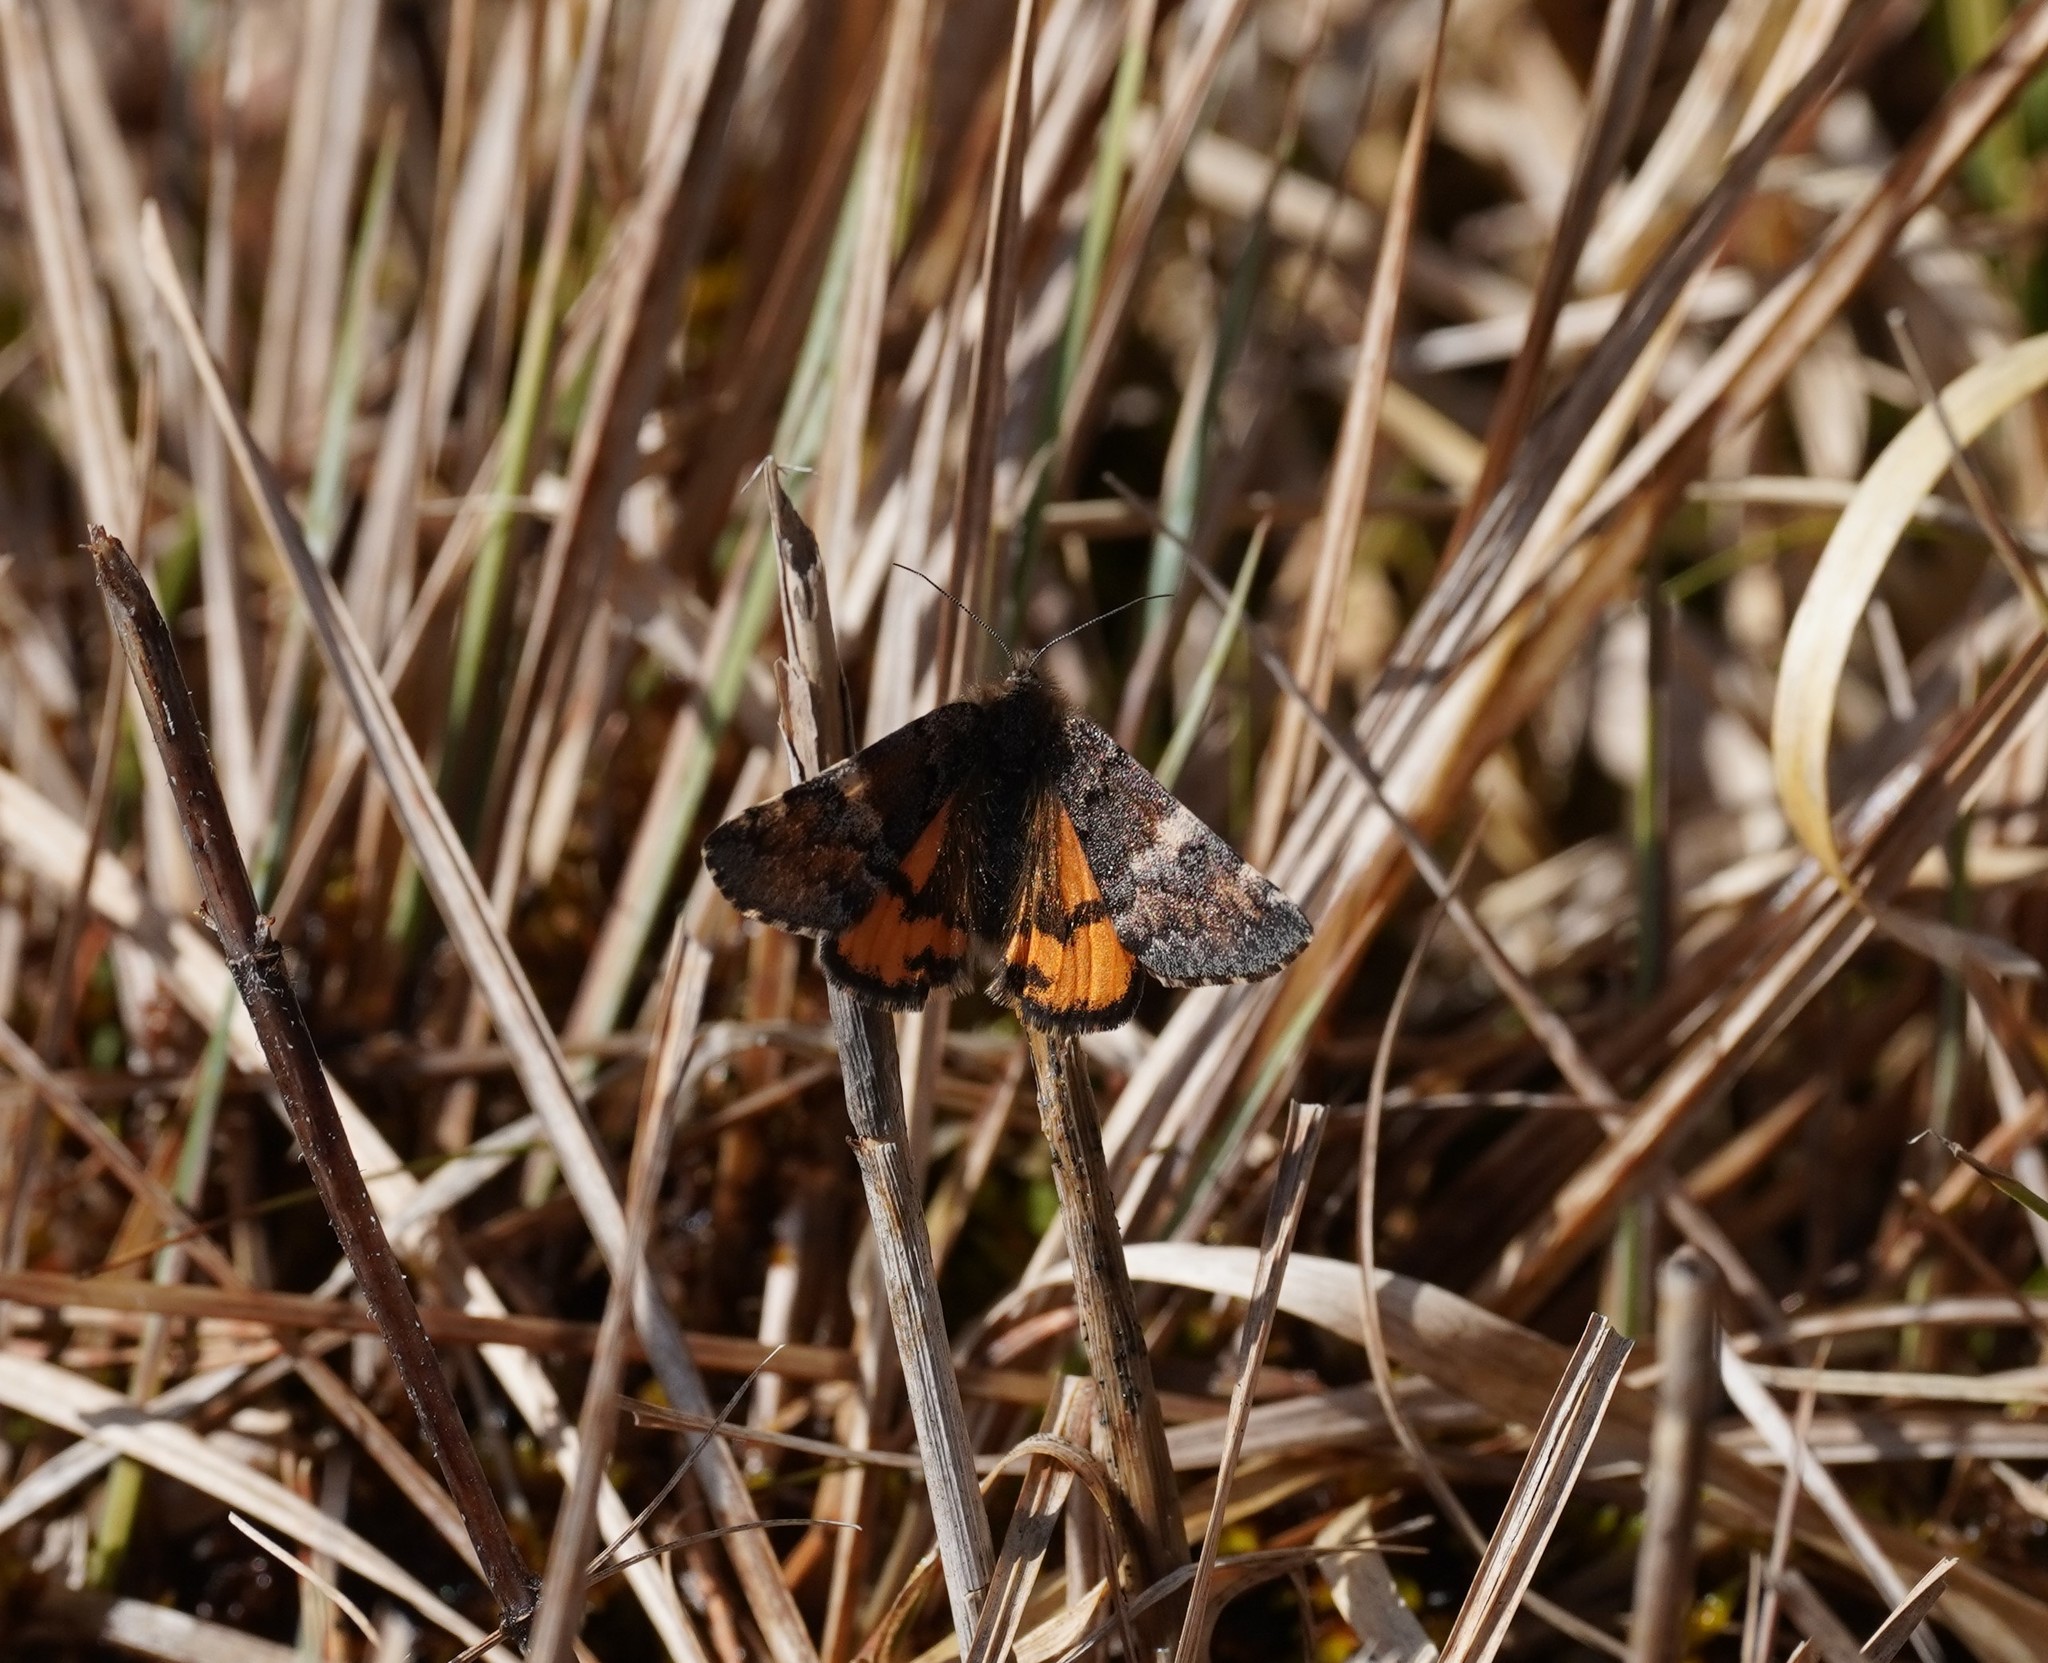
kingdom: Animalia
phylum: Arthropoda
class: Insecta
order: Lepidoptera
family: Geometridae
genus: Archiearis
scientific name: Archiearis parthenias
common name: Orange underwing
